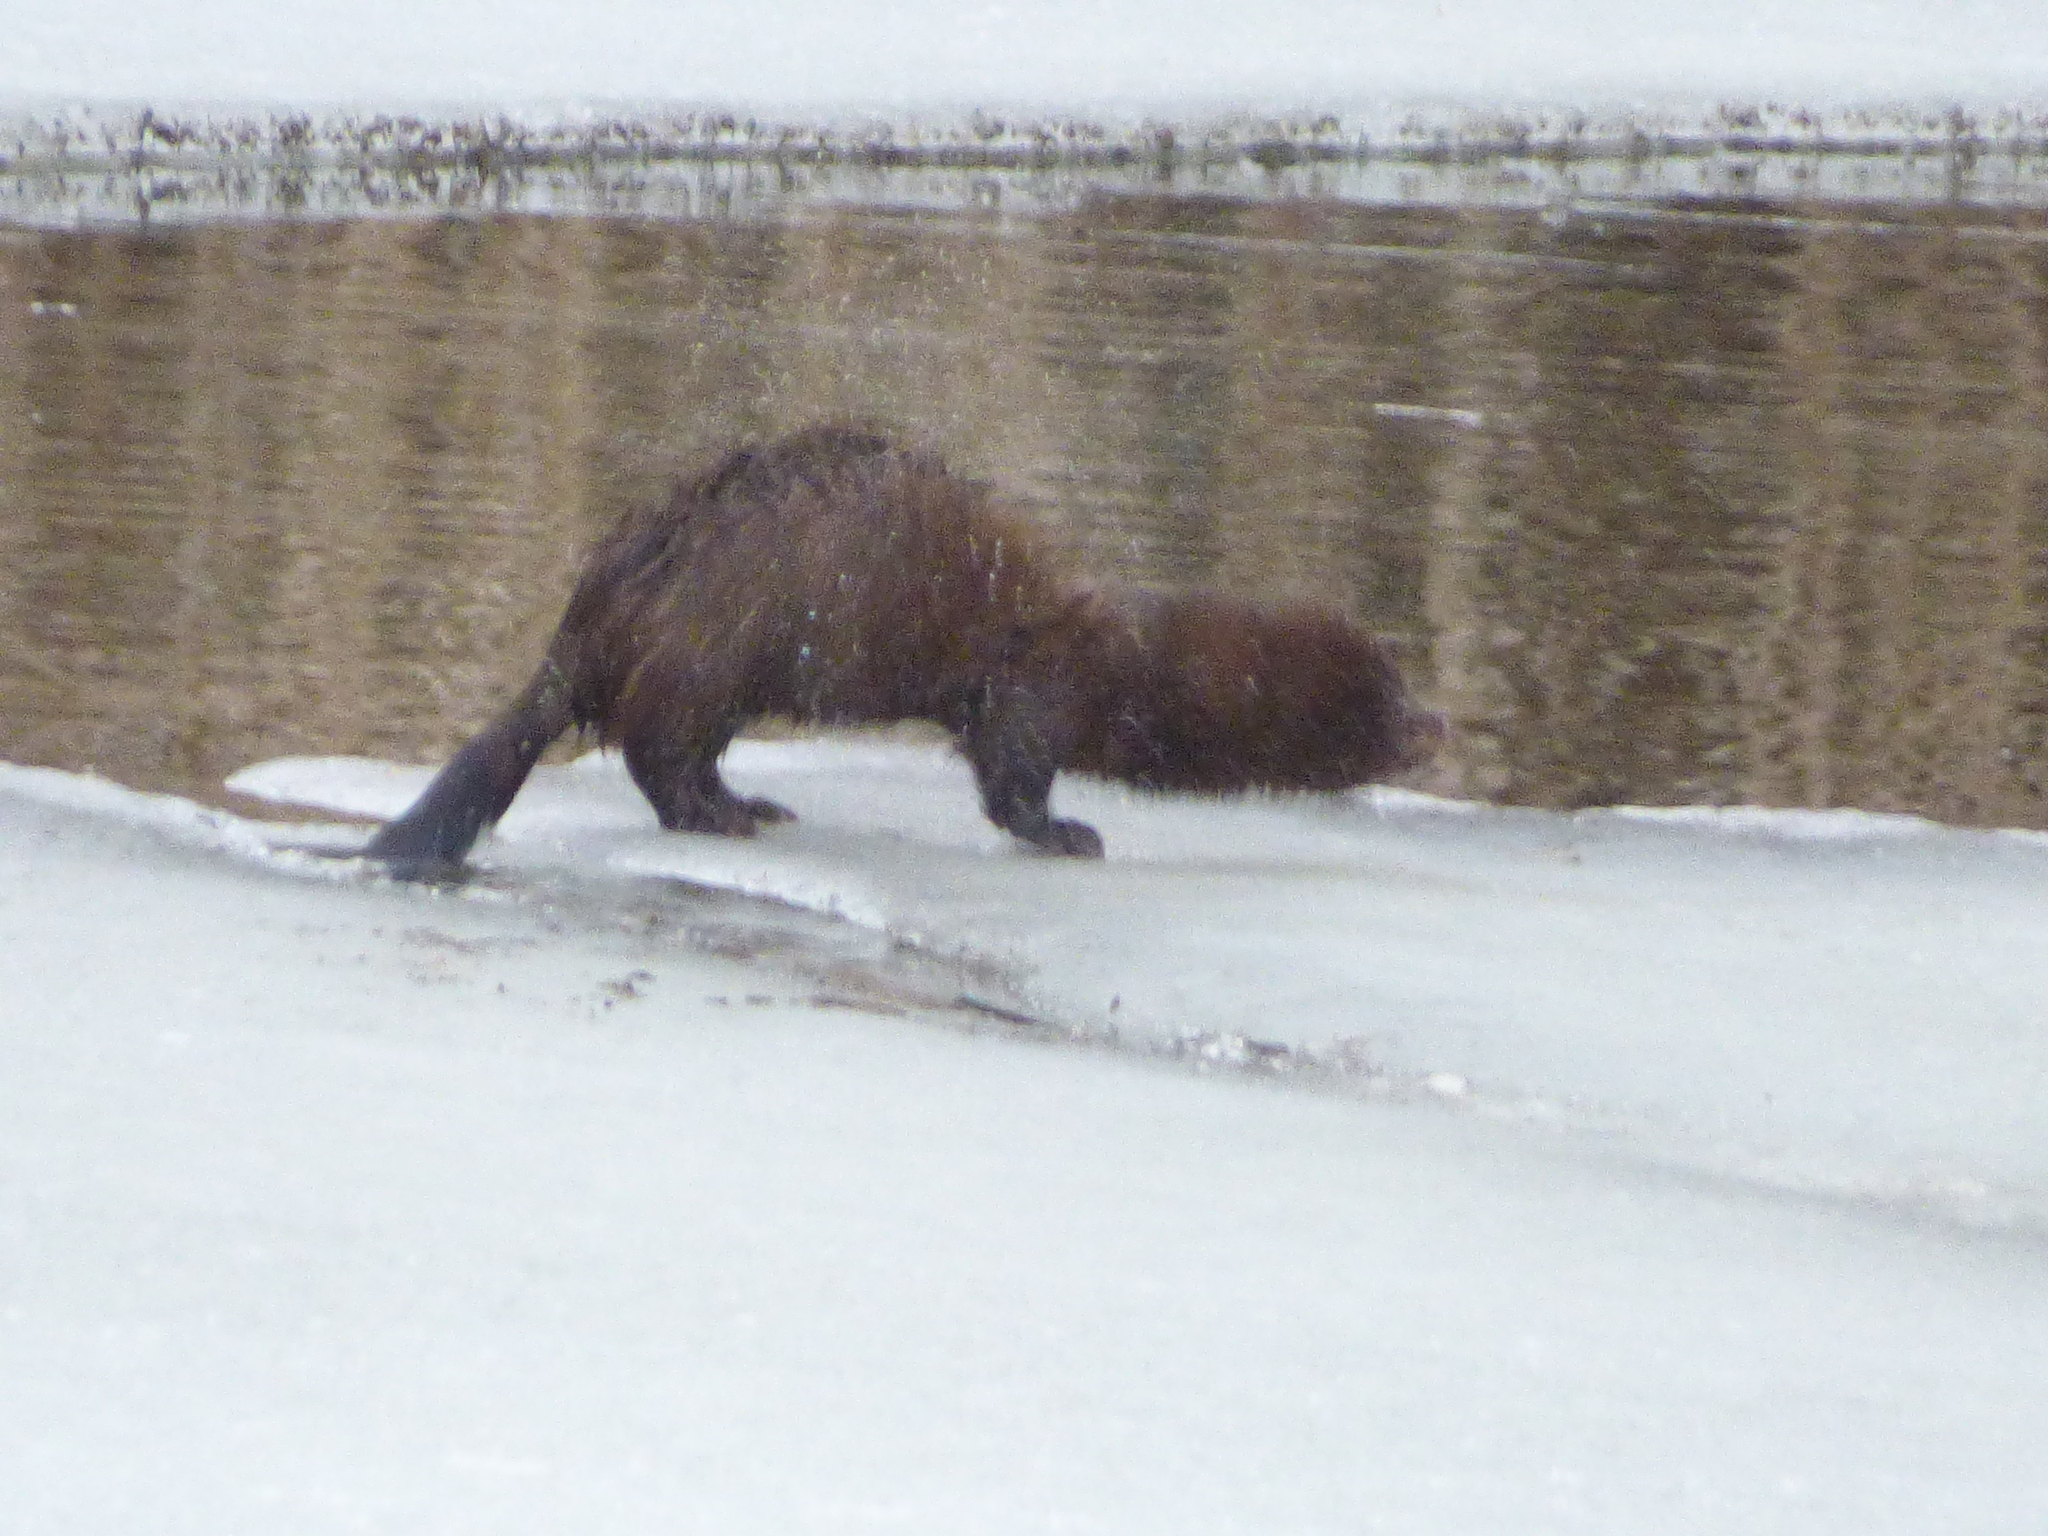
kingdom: Animalia
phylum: Chordata
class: Mammalia
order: Carnivora
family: Mustelidae
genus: Mustela
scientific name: Mustela
